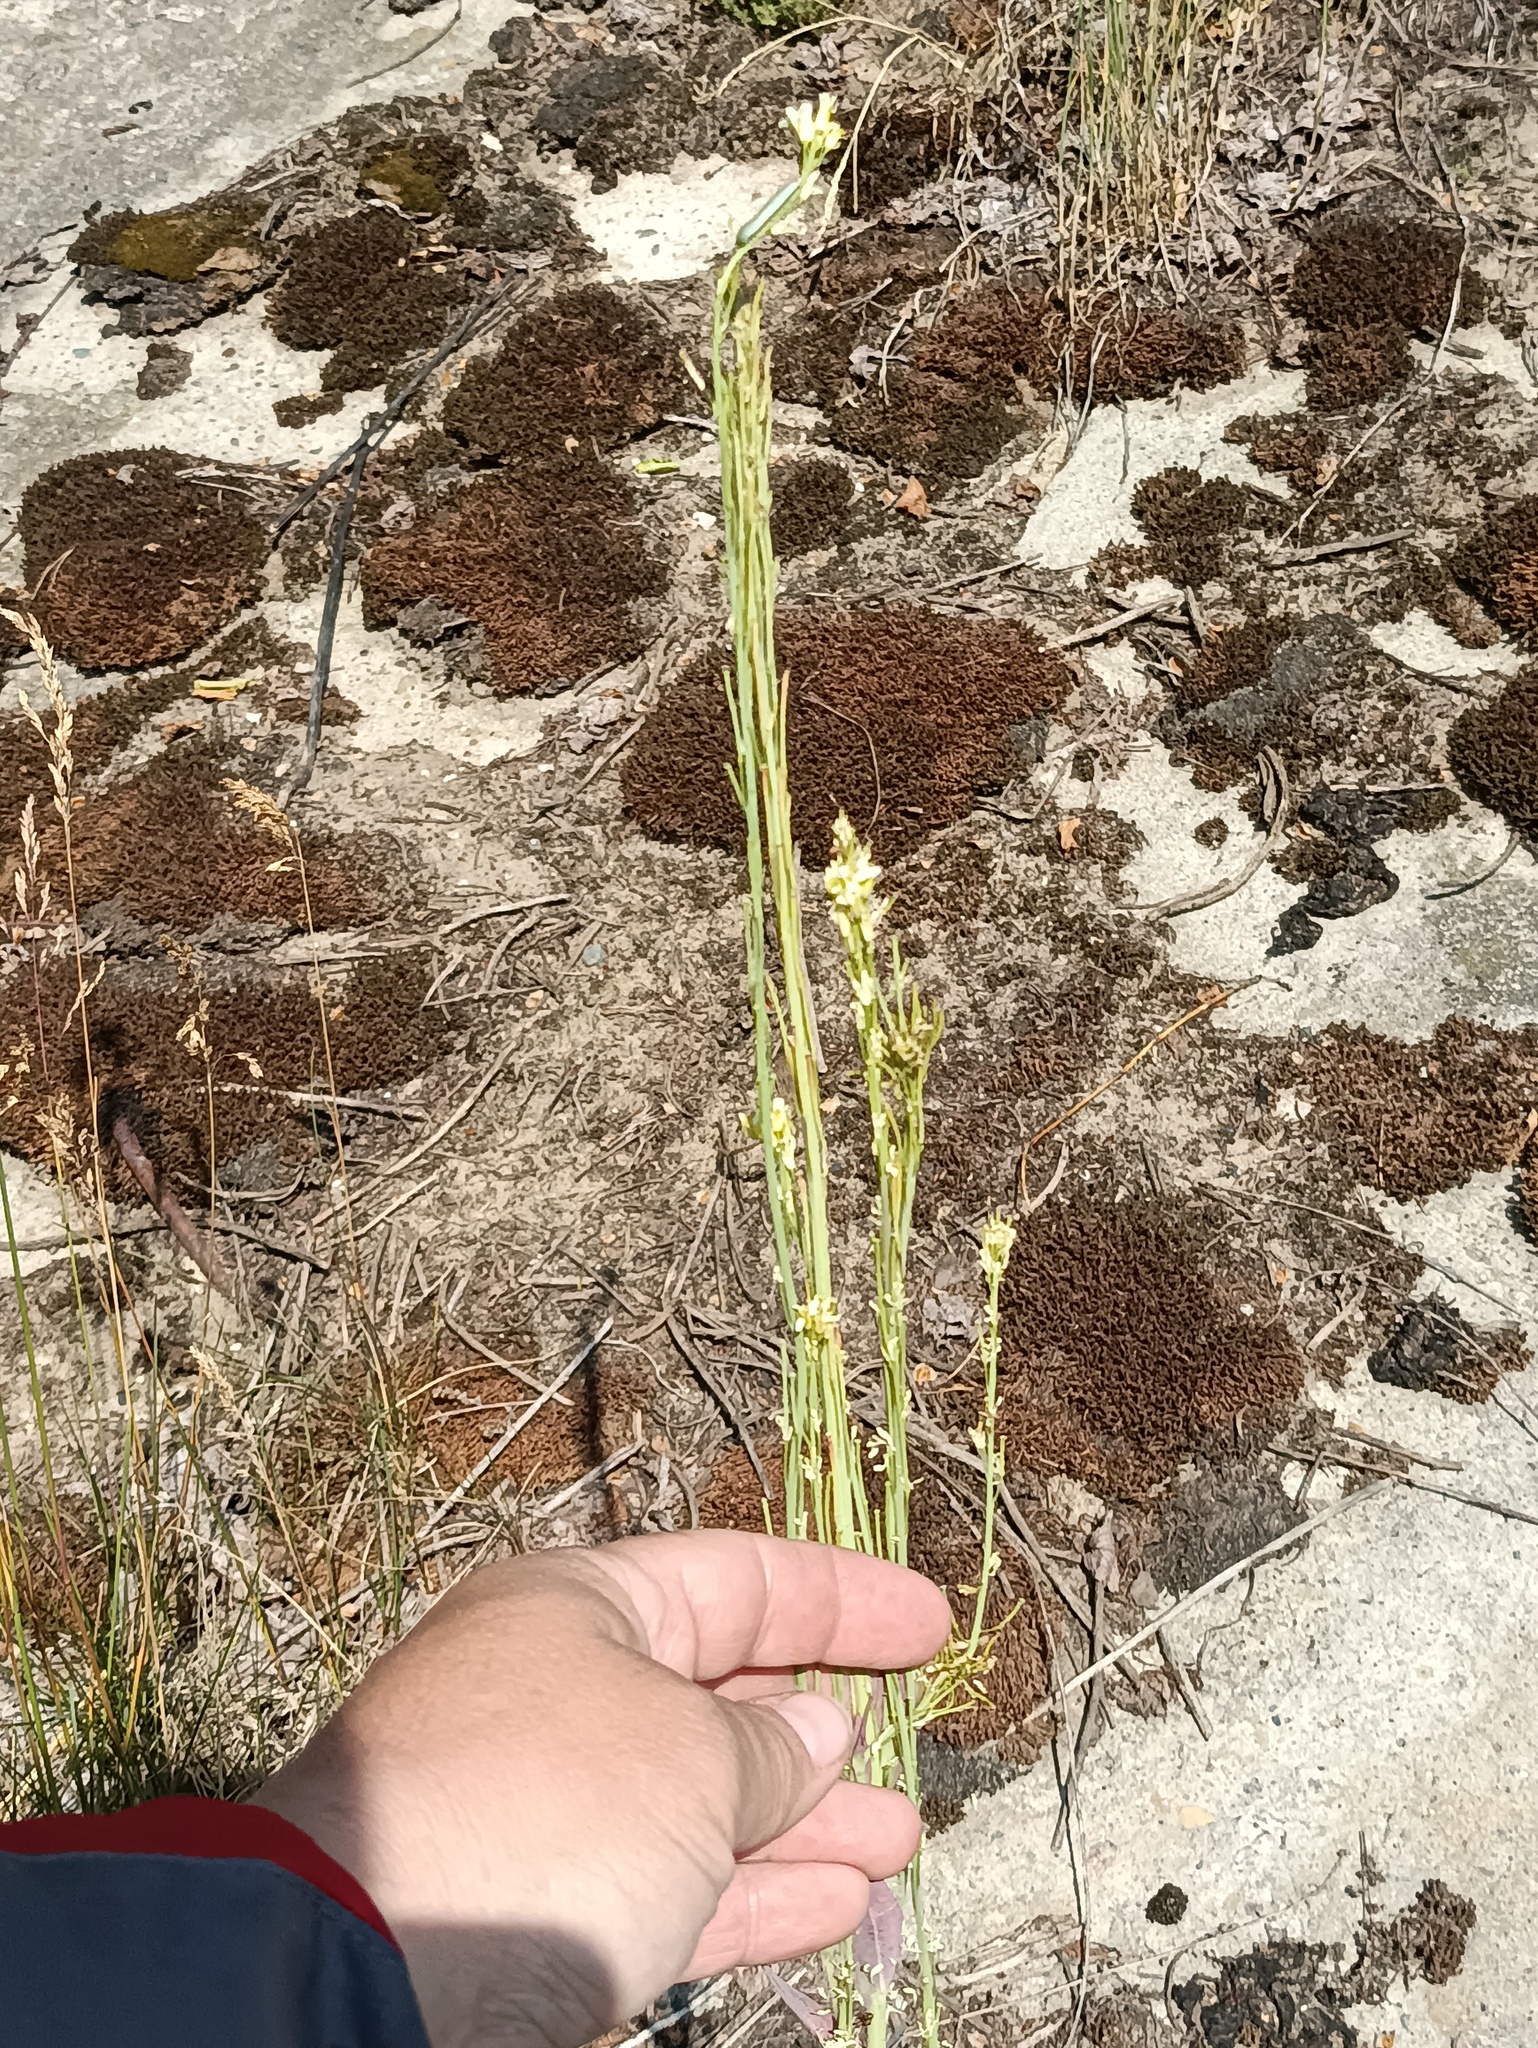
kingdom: Plantae
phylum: Tracheophyta
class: Magnoliopsida
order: Brassicales
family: Brassicaceae
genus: Turritis
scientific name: Turritis glabra
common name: Tower rockcress
